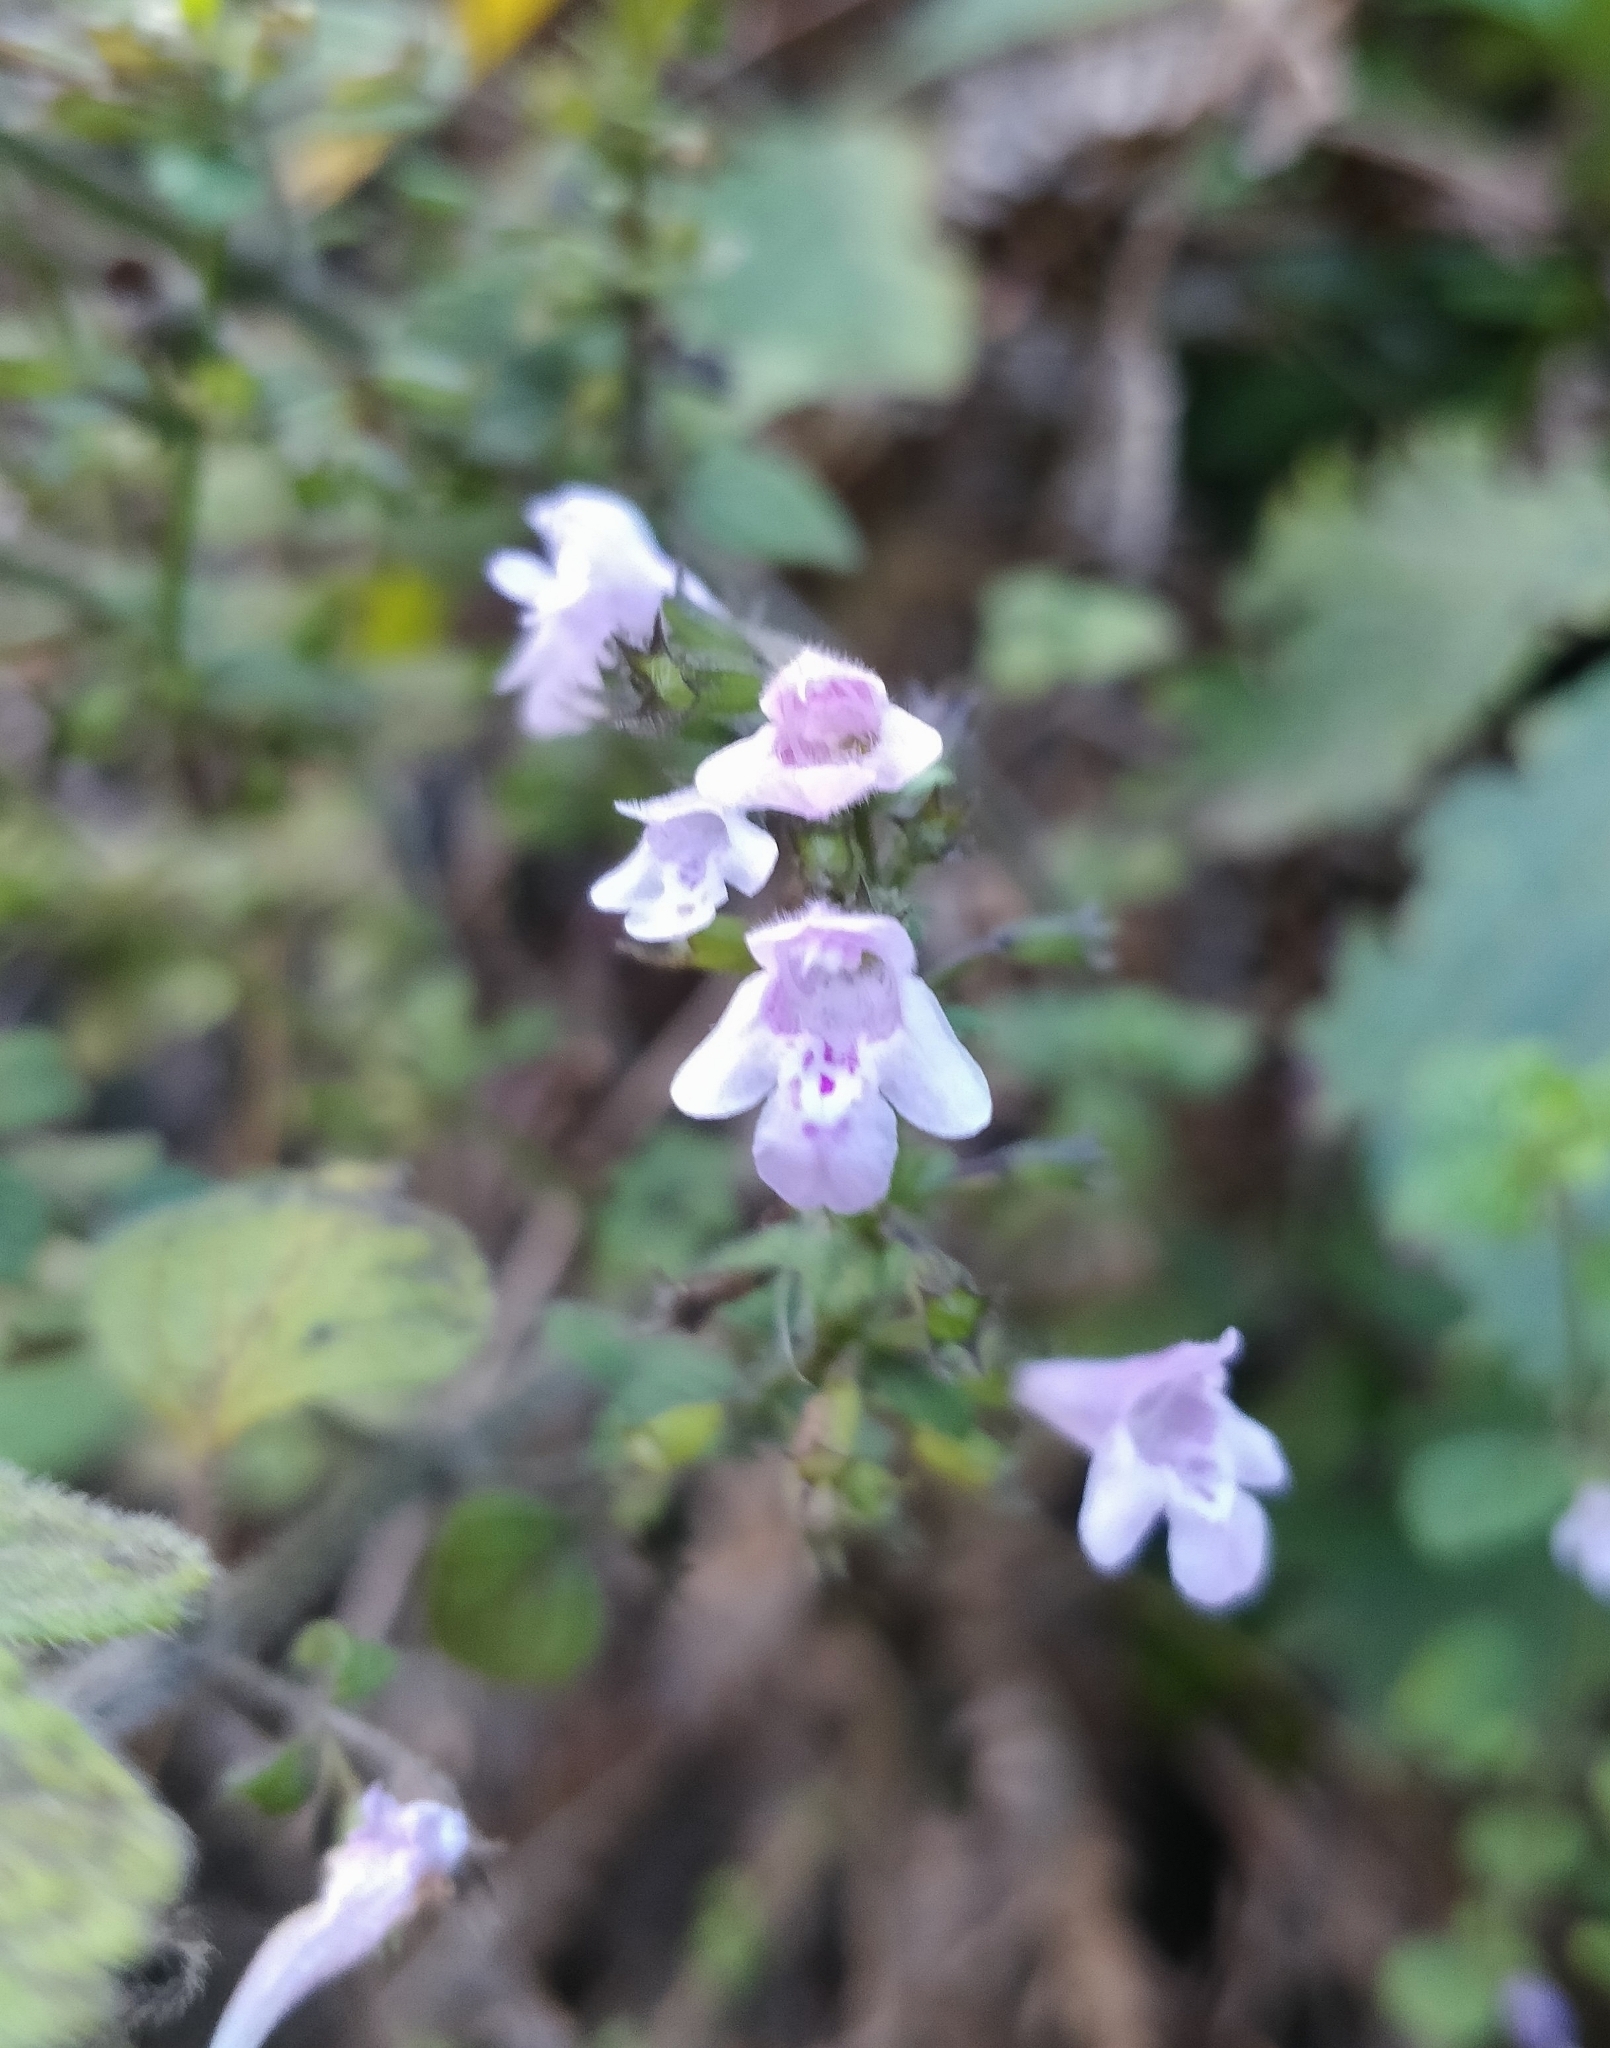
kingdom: Plantae
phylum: Tracheophyta
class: Magnoliopsida
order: Lamiales
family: Lamiaceae
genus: Clinopodium
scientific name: Clinopodium menthifolium
